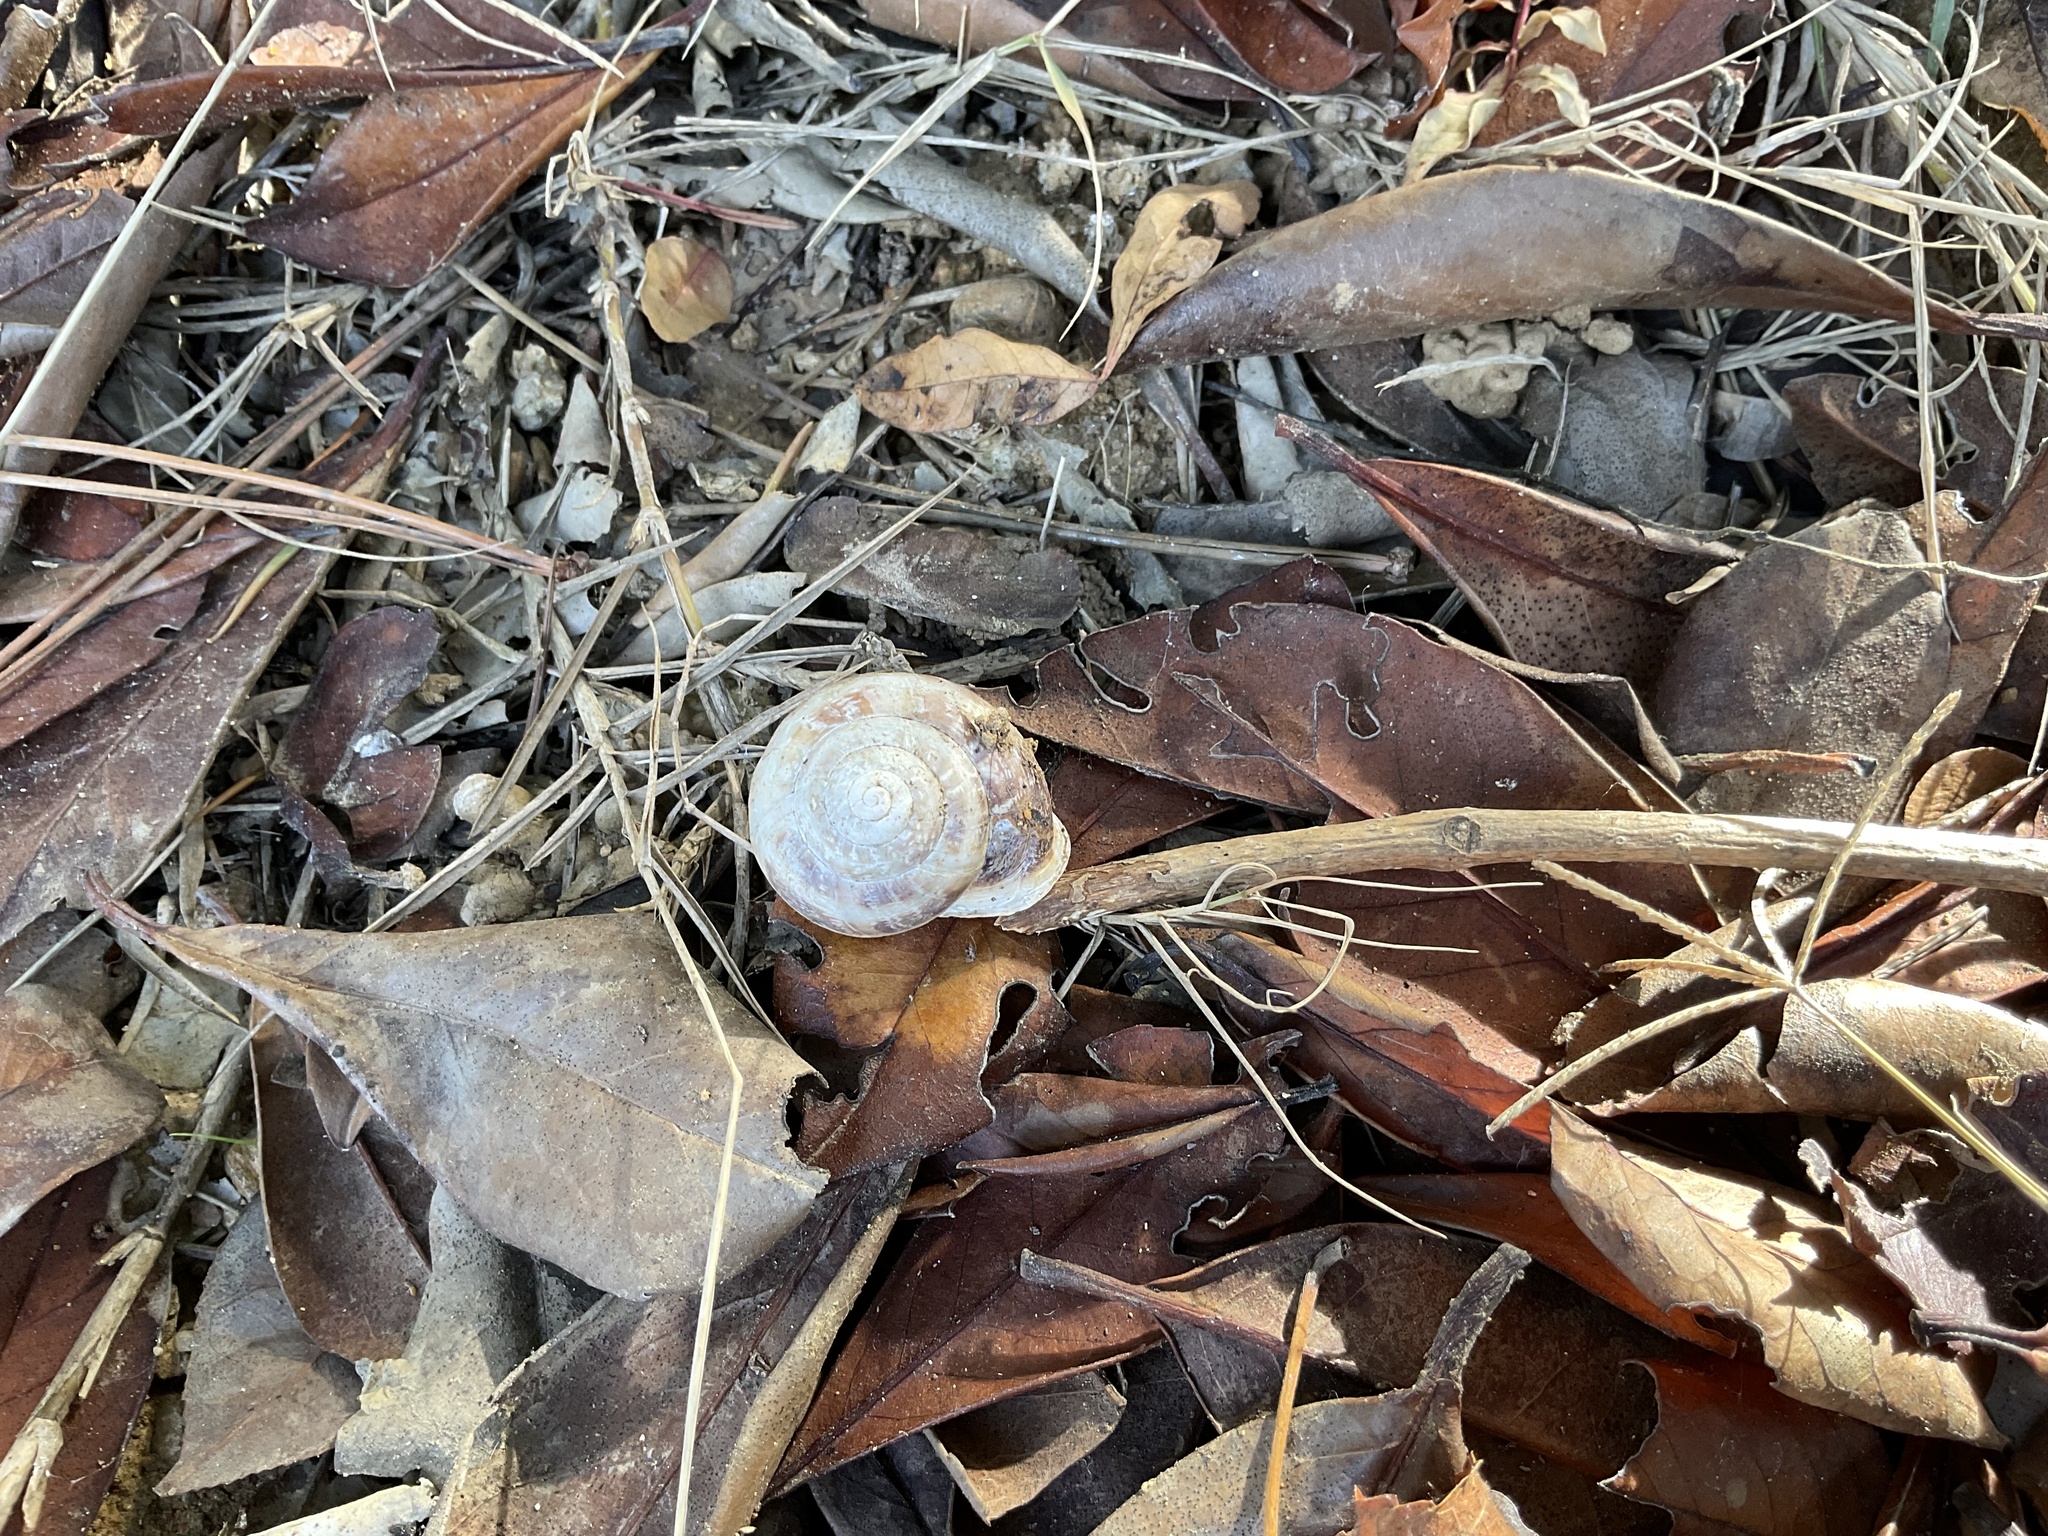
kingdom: Animalia
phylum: Mollusca
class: Gastropoda
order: Stylommatophora
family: Helicidae
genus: Eobania
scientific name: Eobania vermiculata
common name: Chocolateband snail
